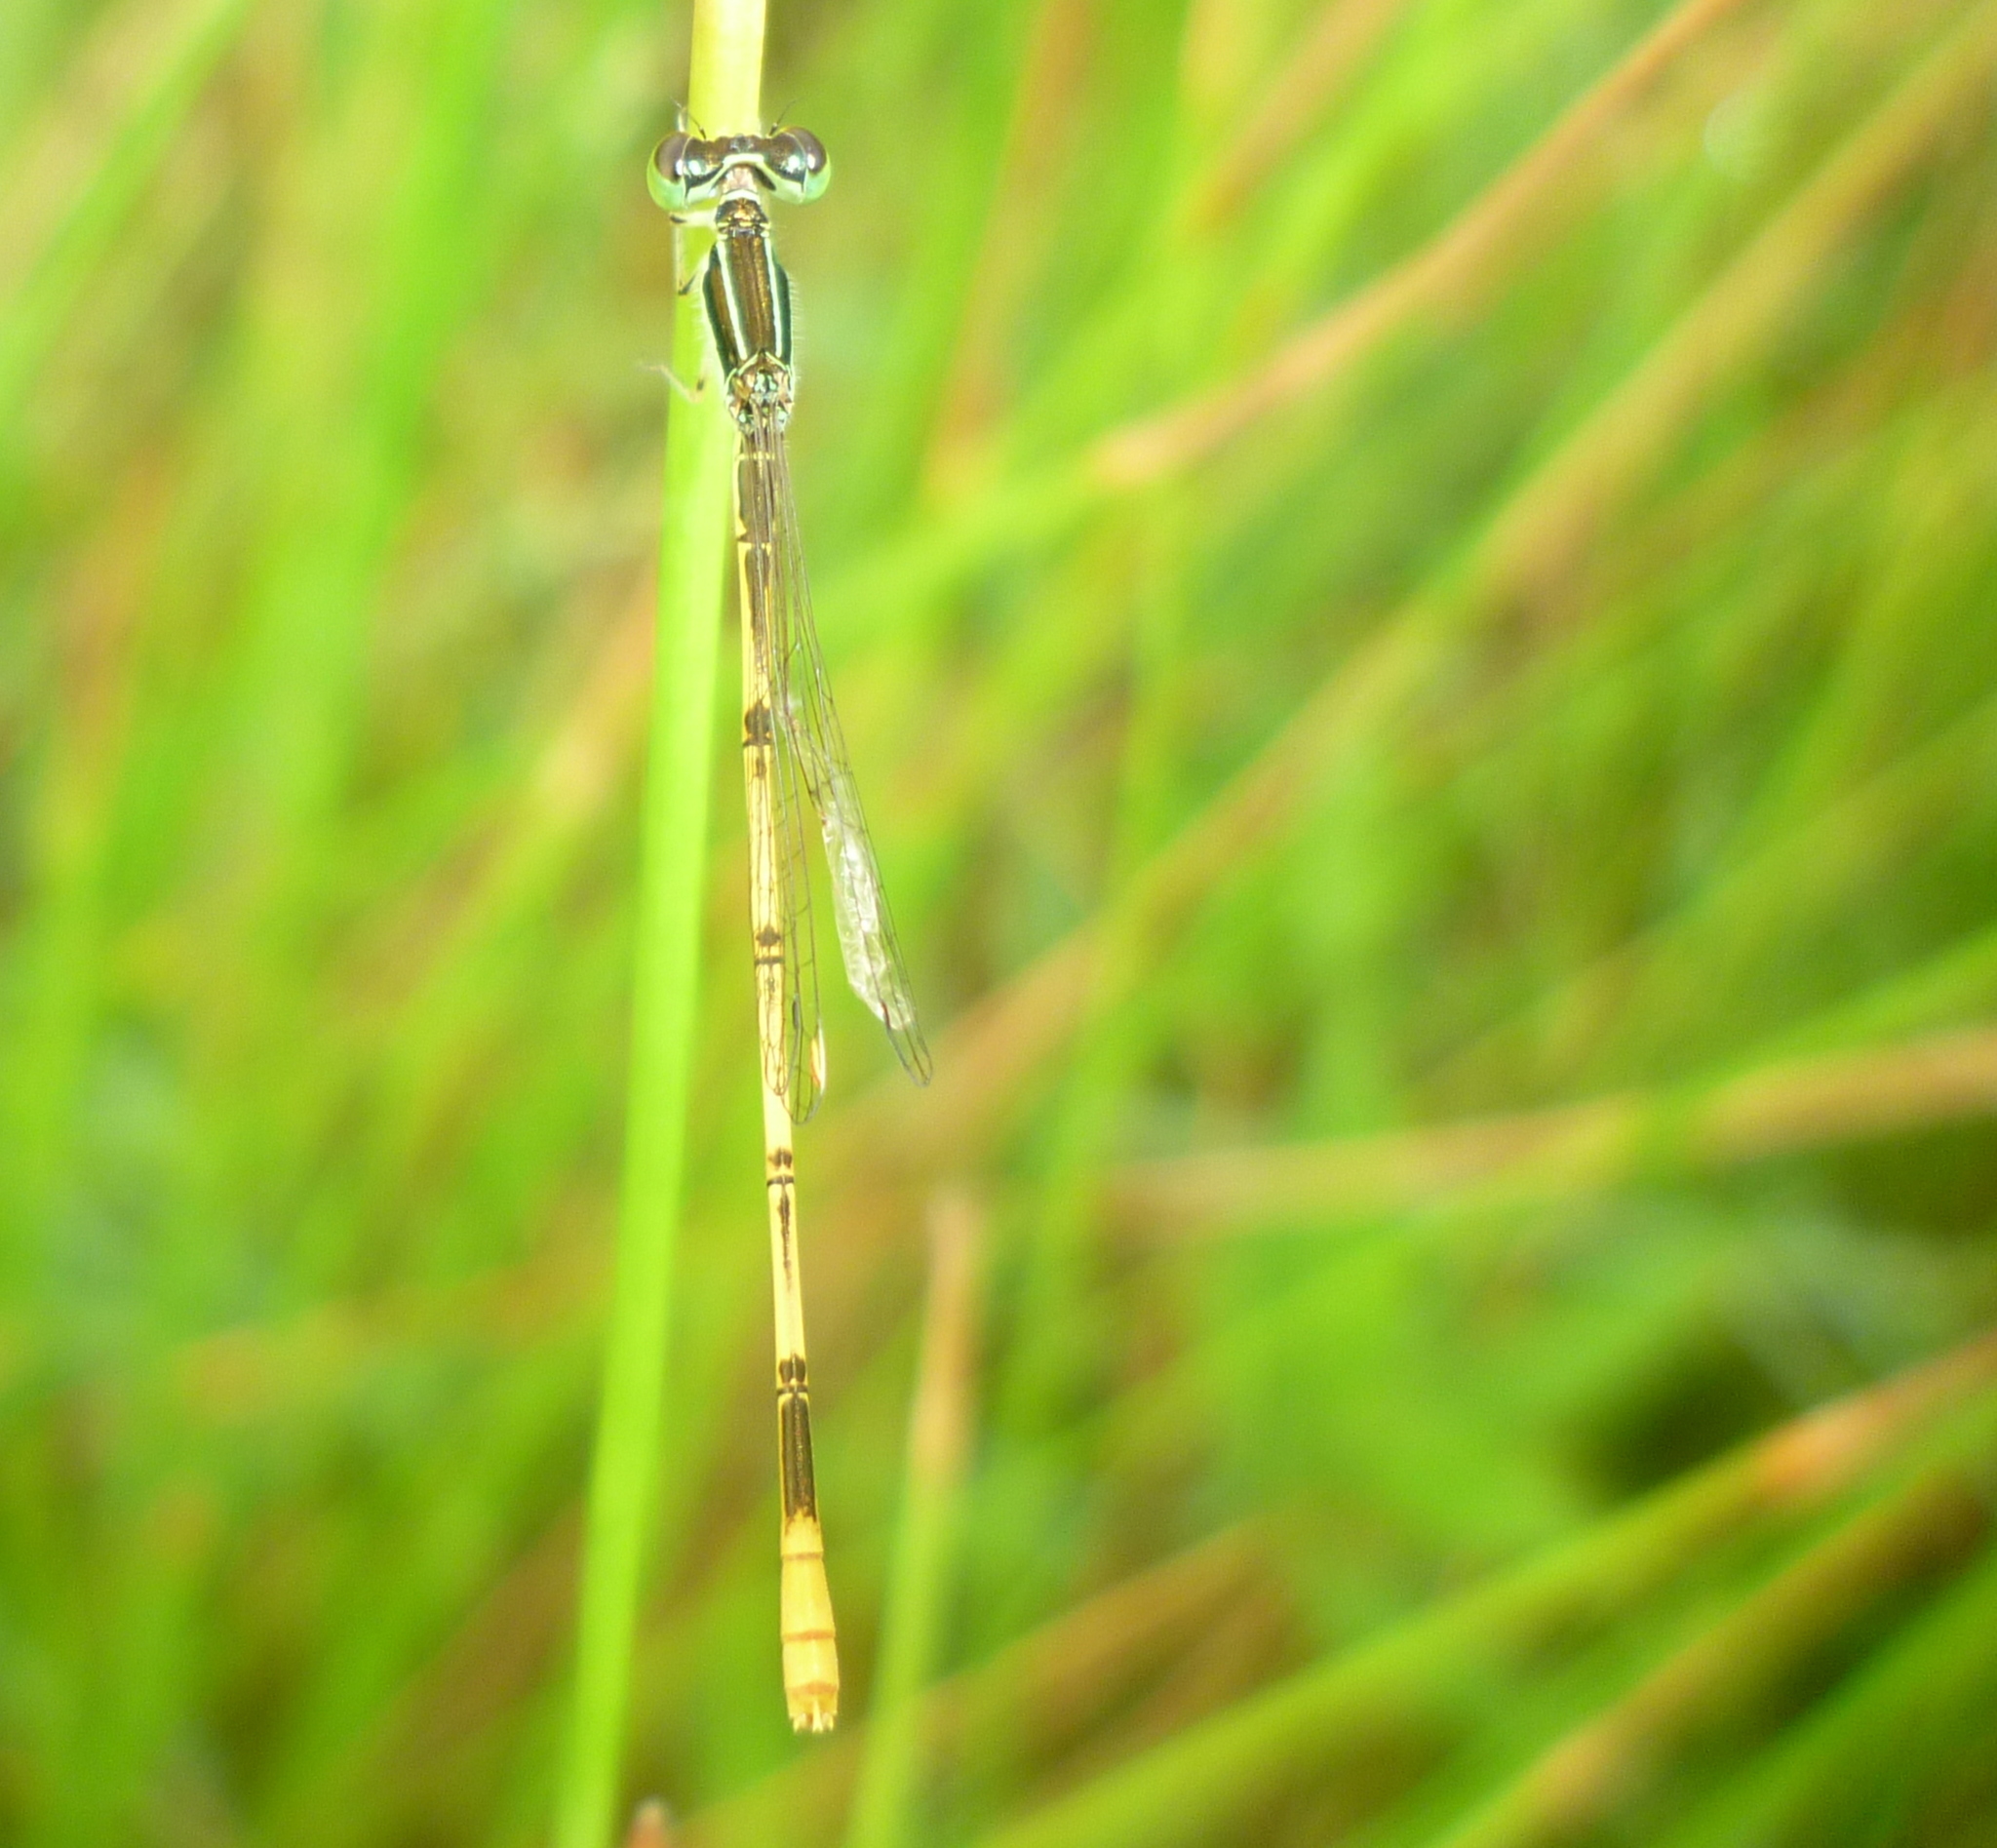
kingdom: Animalia
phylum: Arthropoda
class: Insecta
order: Odonata
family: Coenagrionidae
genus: Ischnura
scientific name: Ischnura hastata
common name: Citrine forktail
